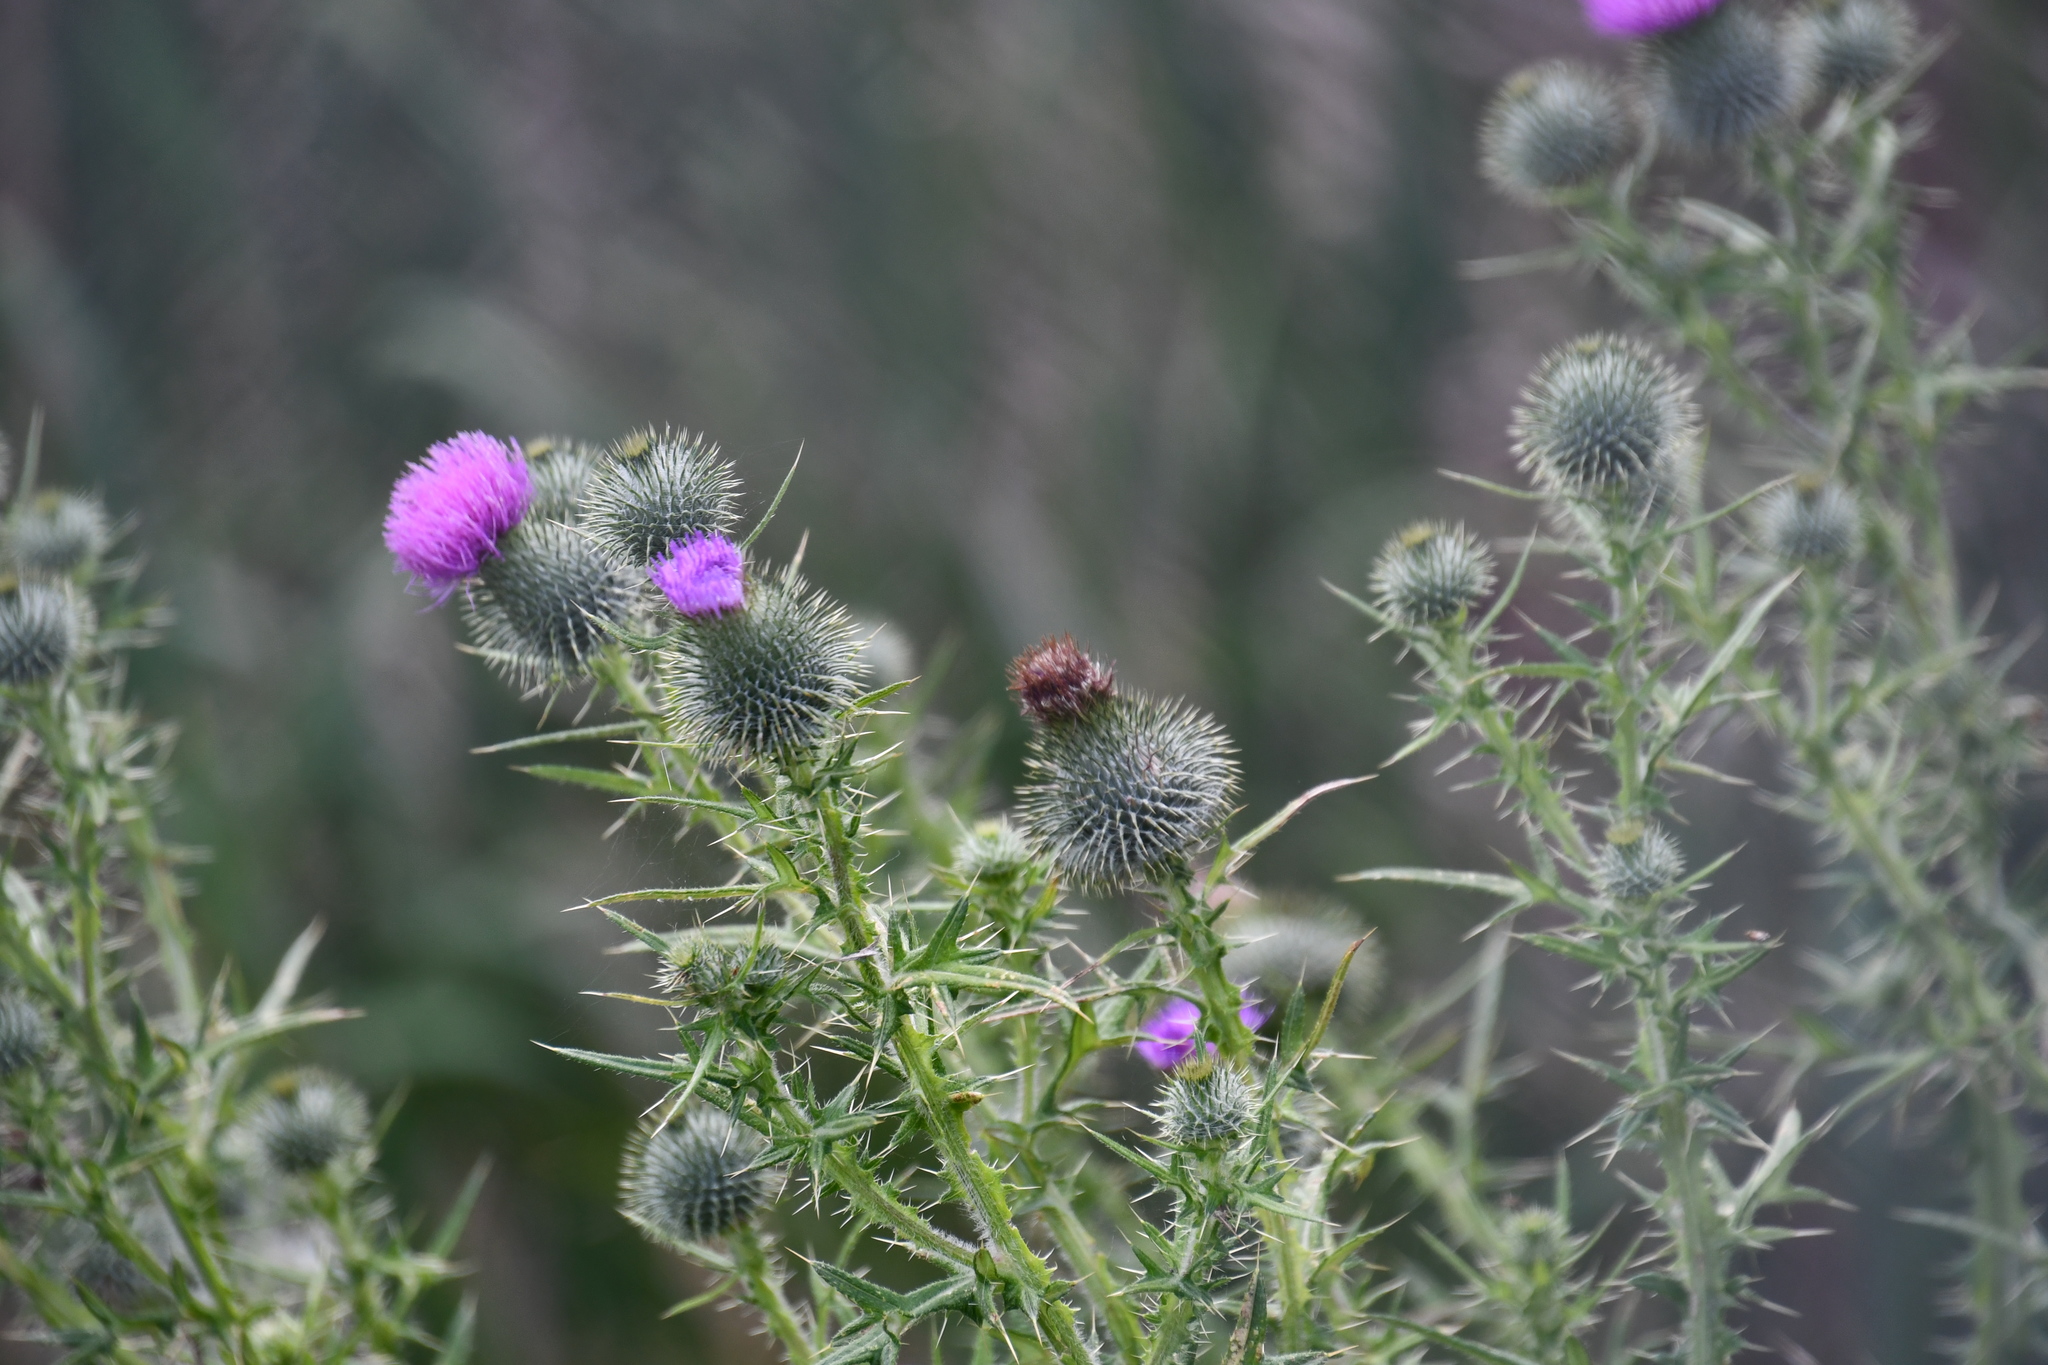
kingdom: Plantae
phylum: Tracheophyta
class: Magnoliopsida
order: Asterales
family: Asteraceae
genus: Cirsium
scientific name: Cirsium vulgare
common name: Bull thistle
